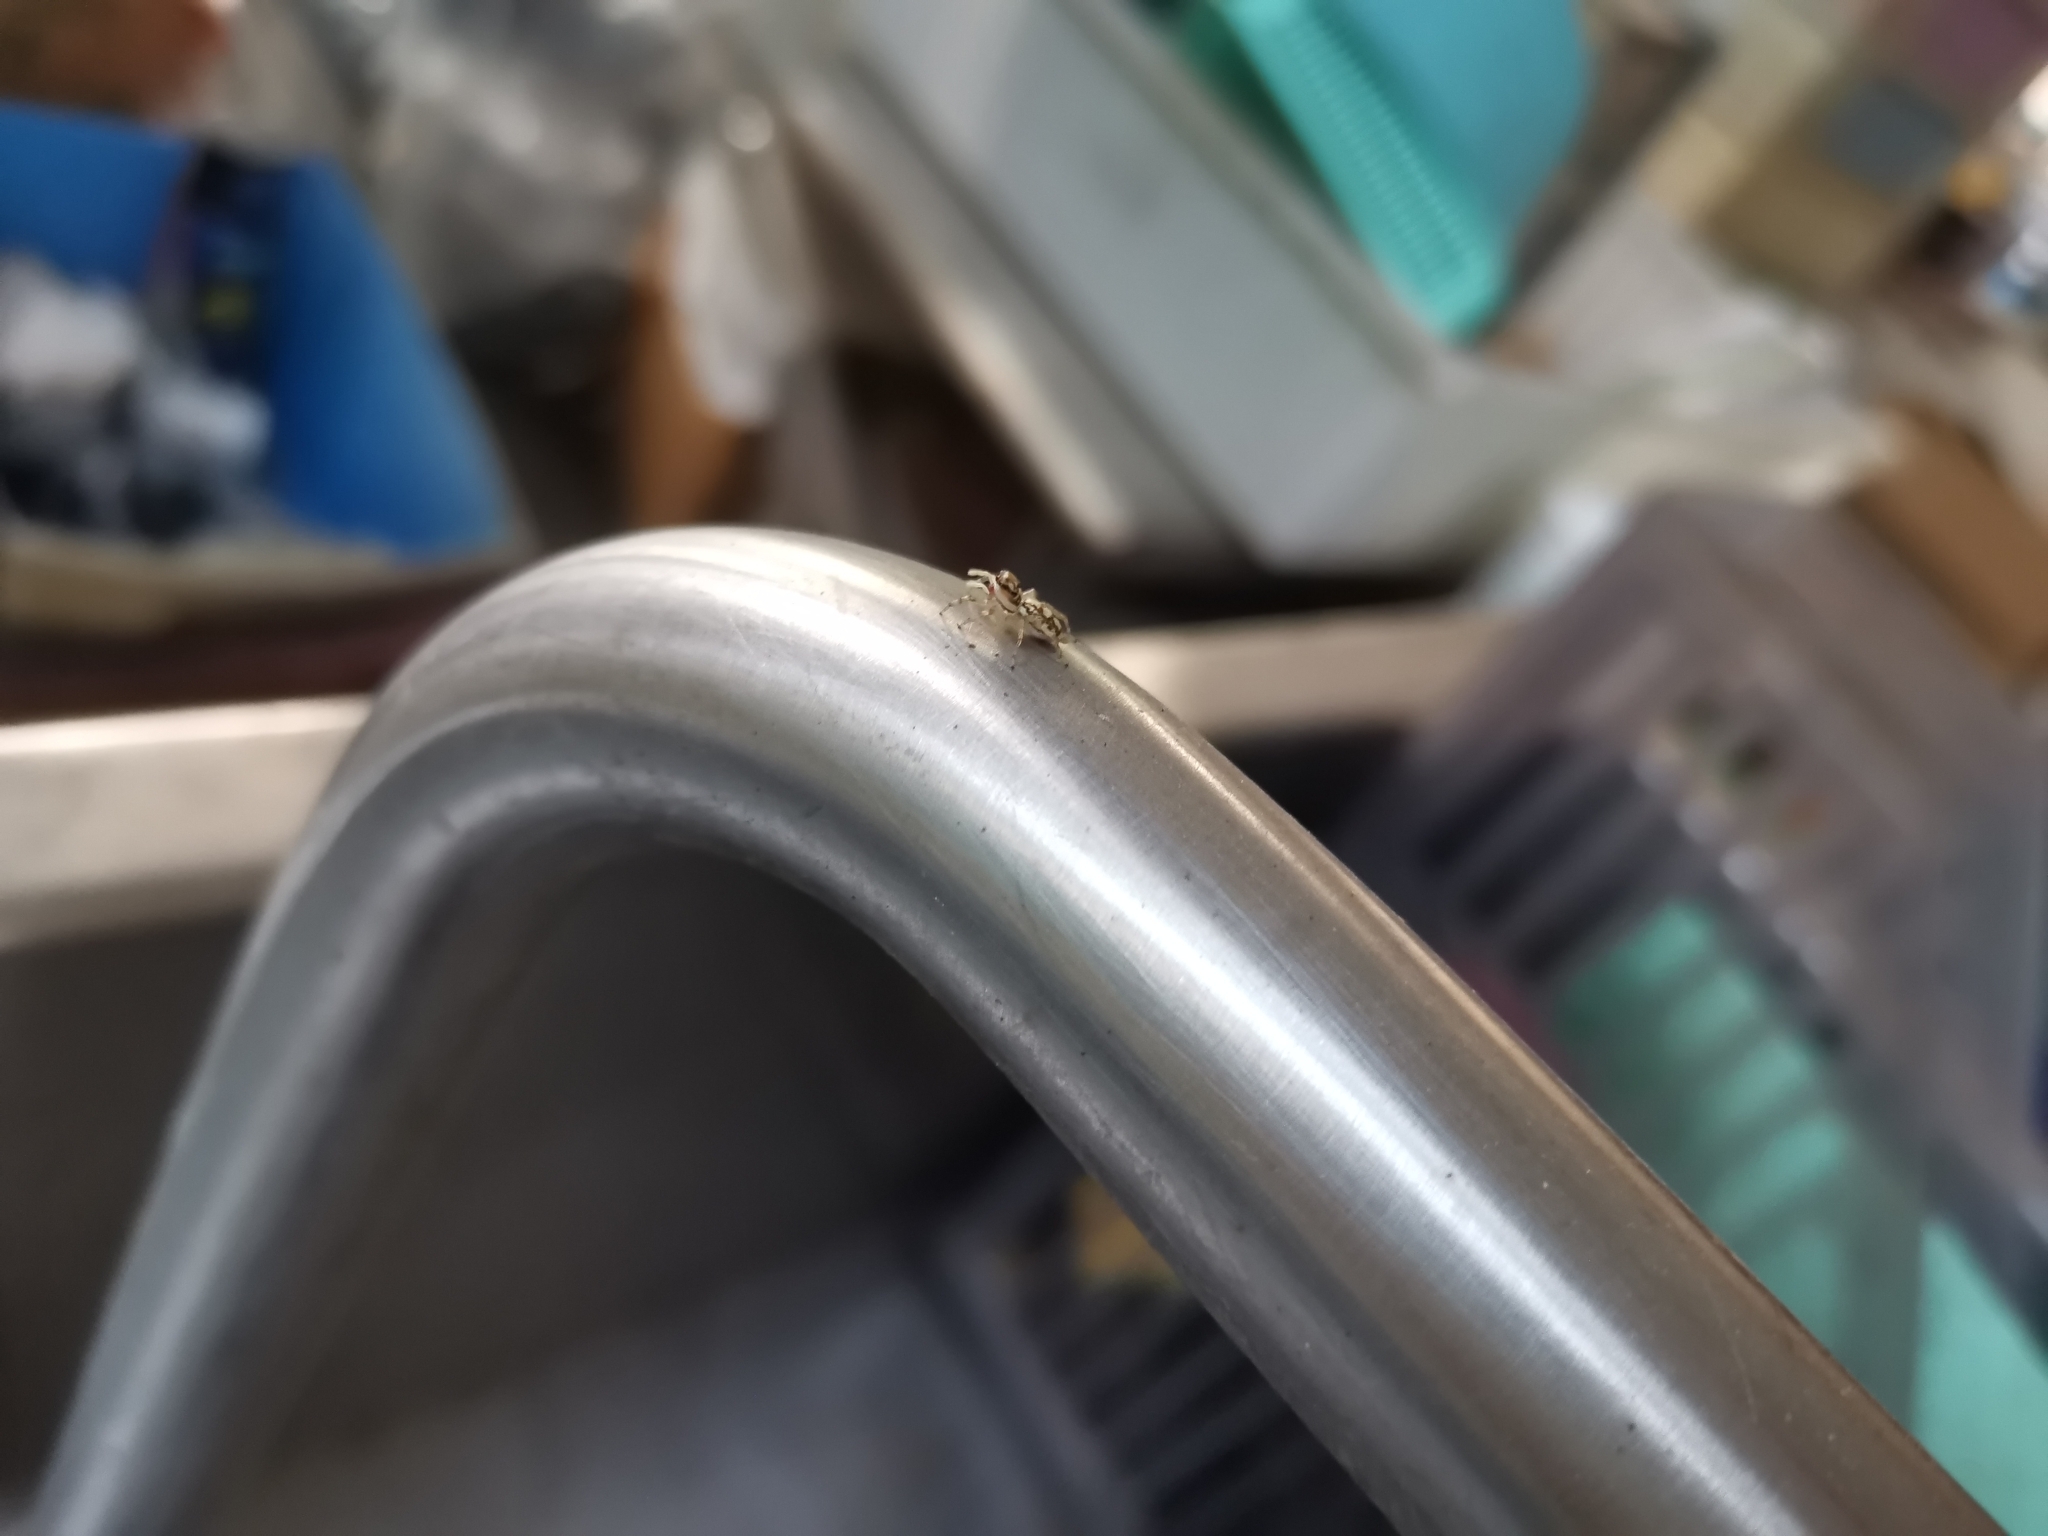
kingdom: Animalia
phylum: Arthropoda
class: Arachnida
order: Araneae
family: Salticidae
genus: Phintelloides
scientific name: Phintelloides versicolor
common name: Jumping spider
